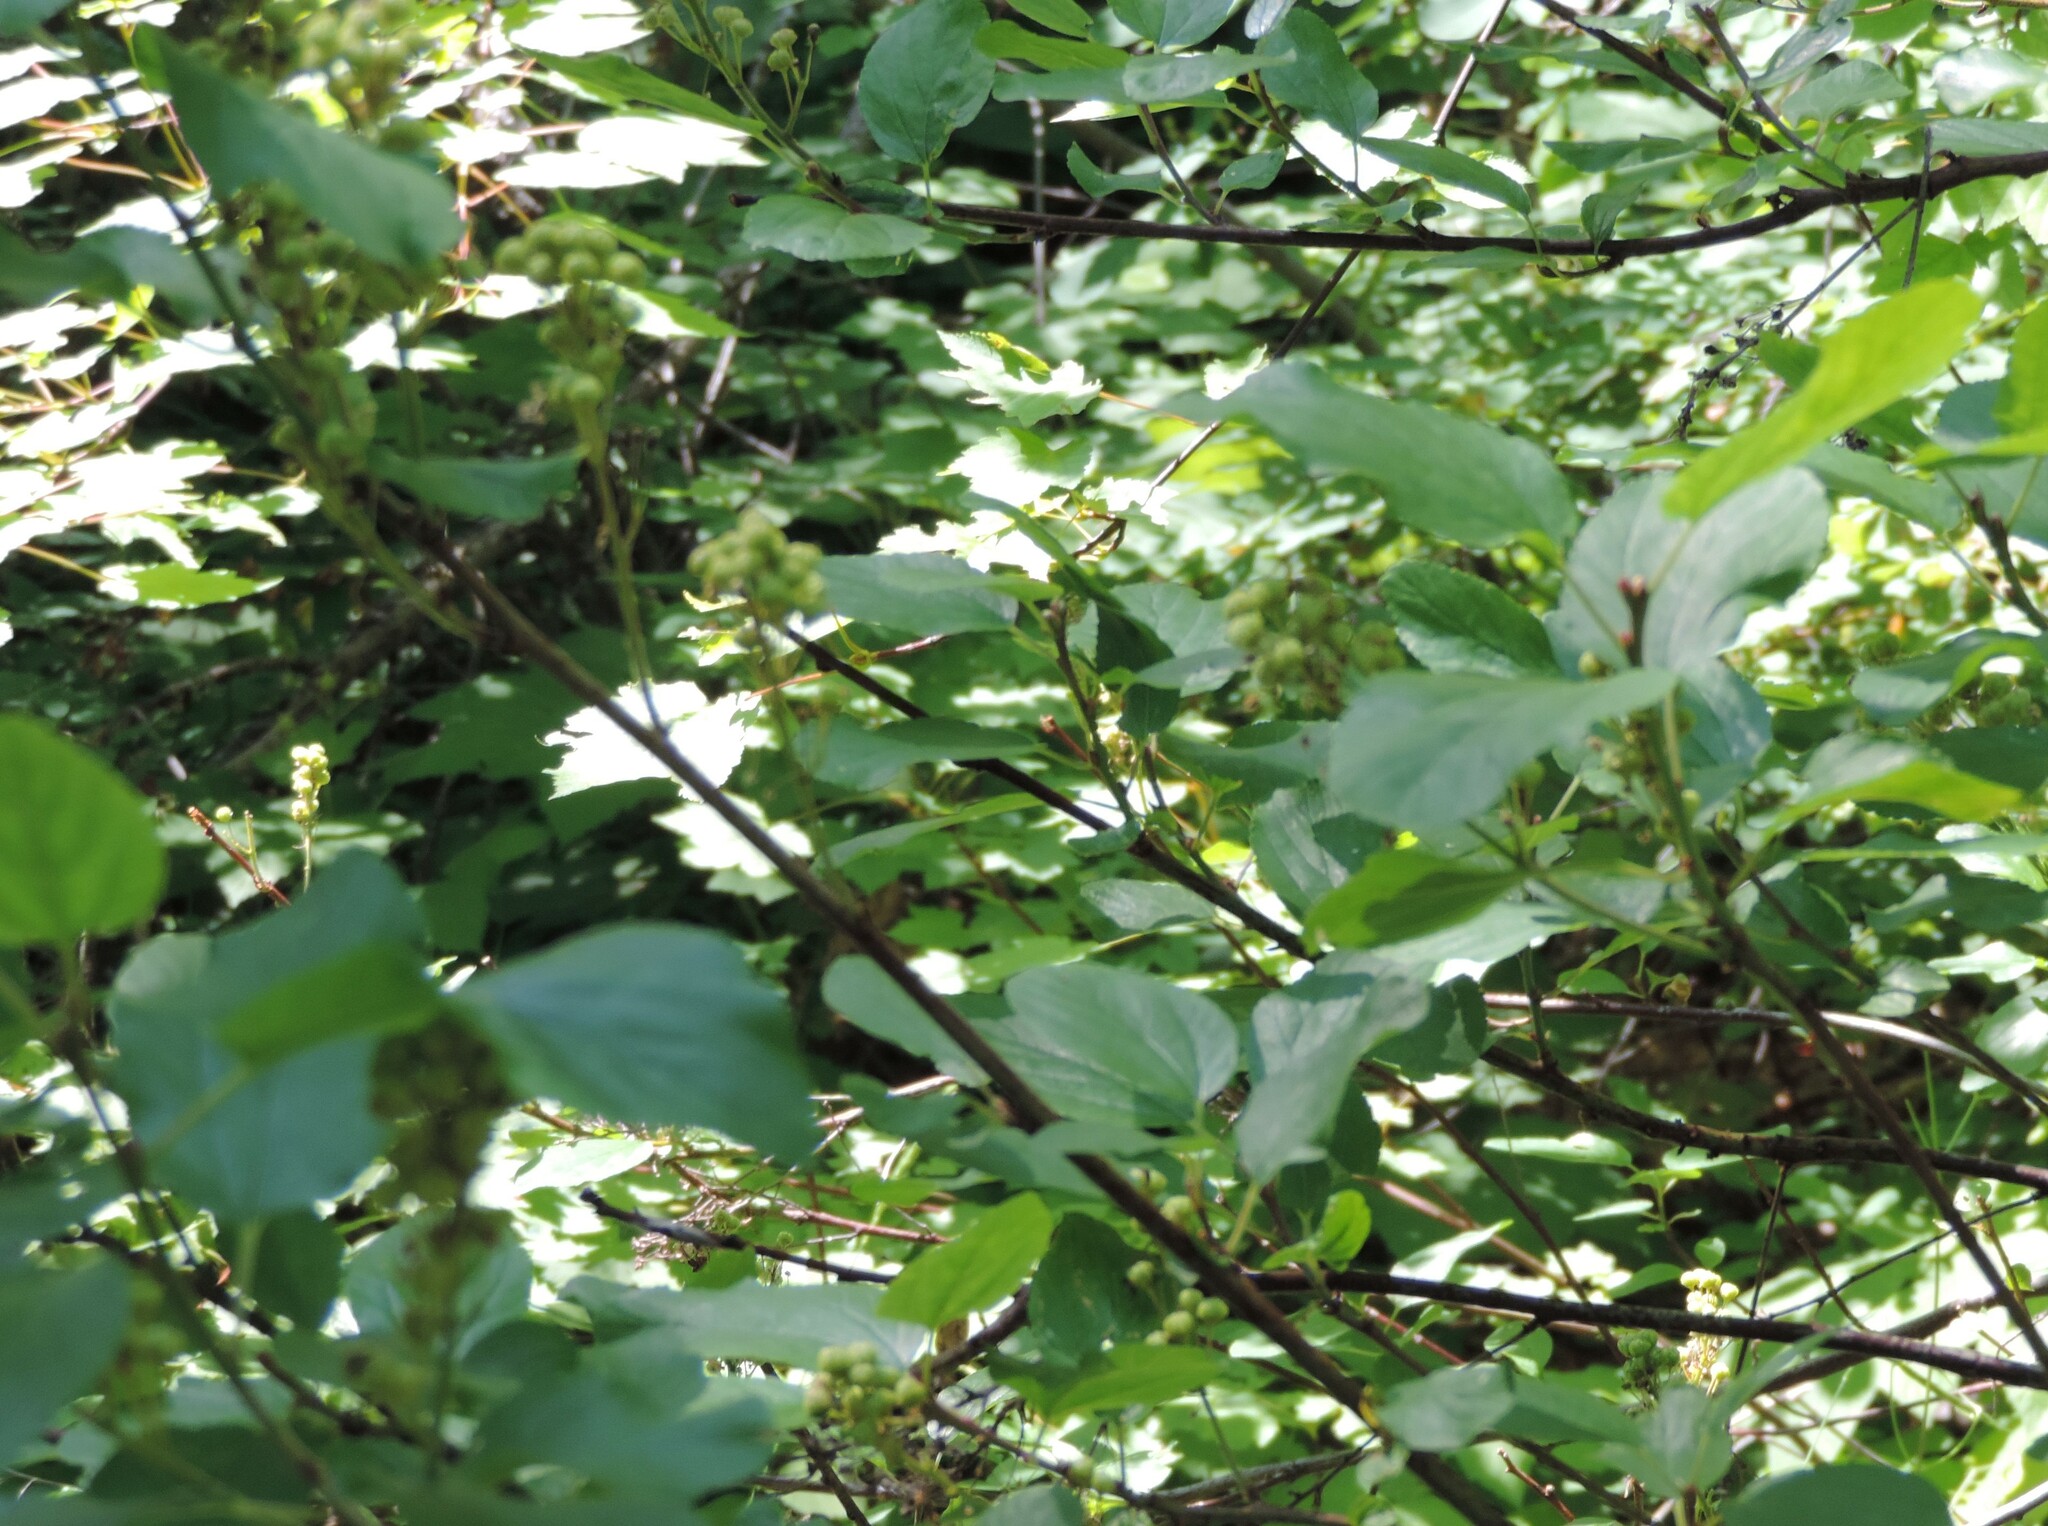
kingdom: Plantae
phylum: Tracheophyta
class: Magnoliopsida
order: Rosales
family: Rhamnaceae
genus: Ceanothus
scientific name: Ceanothus sanguineus
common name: Teatree
